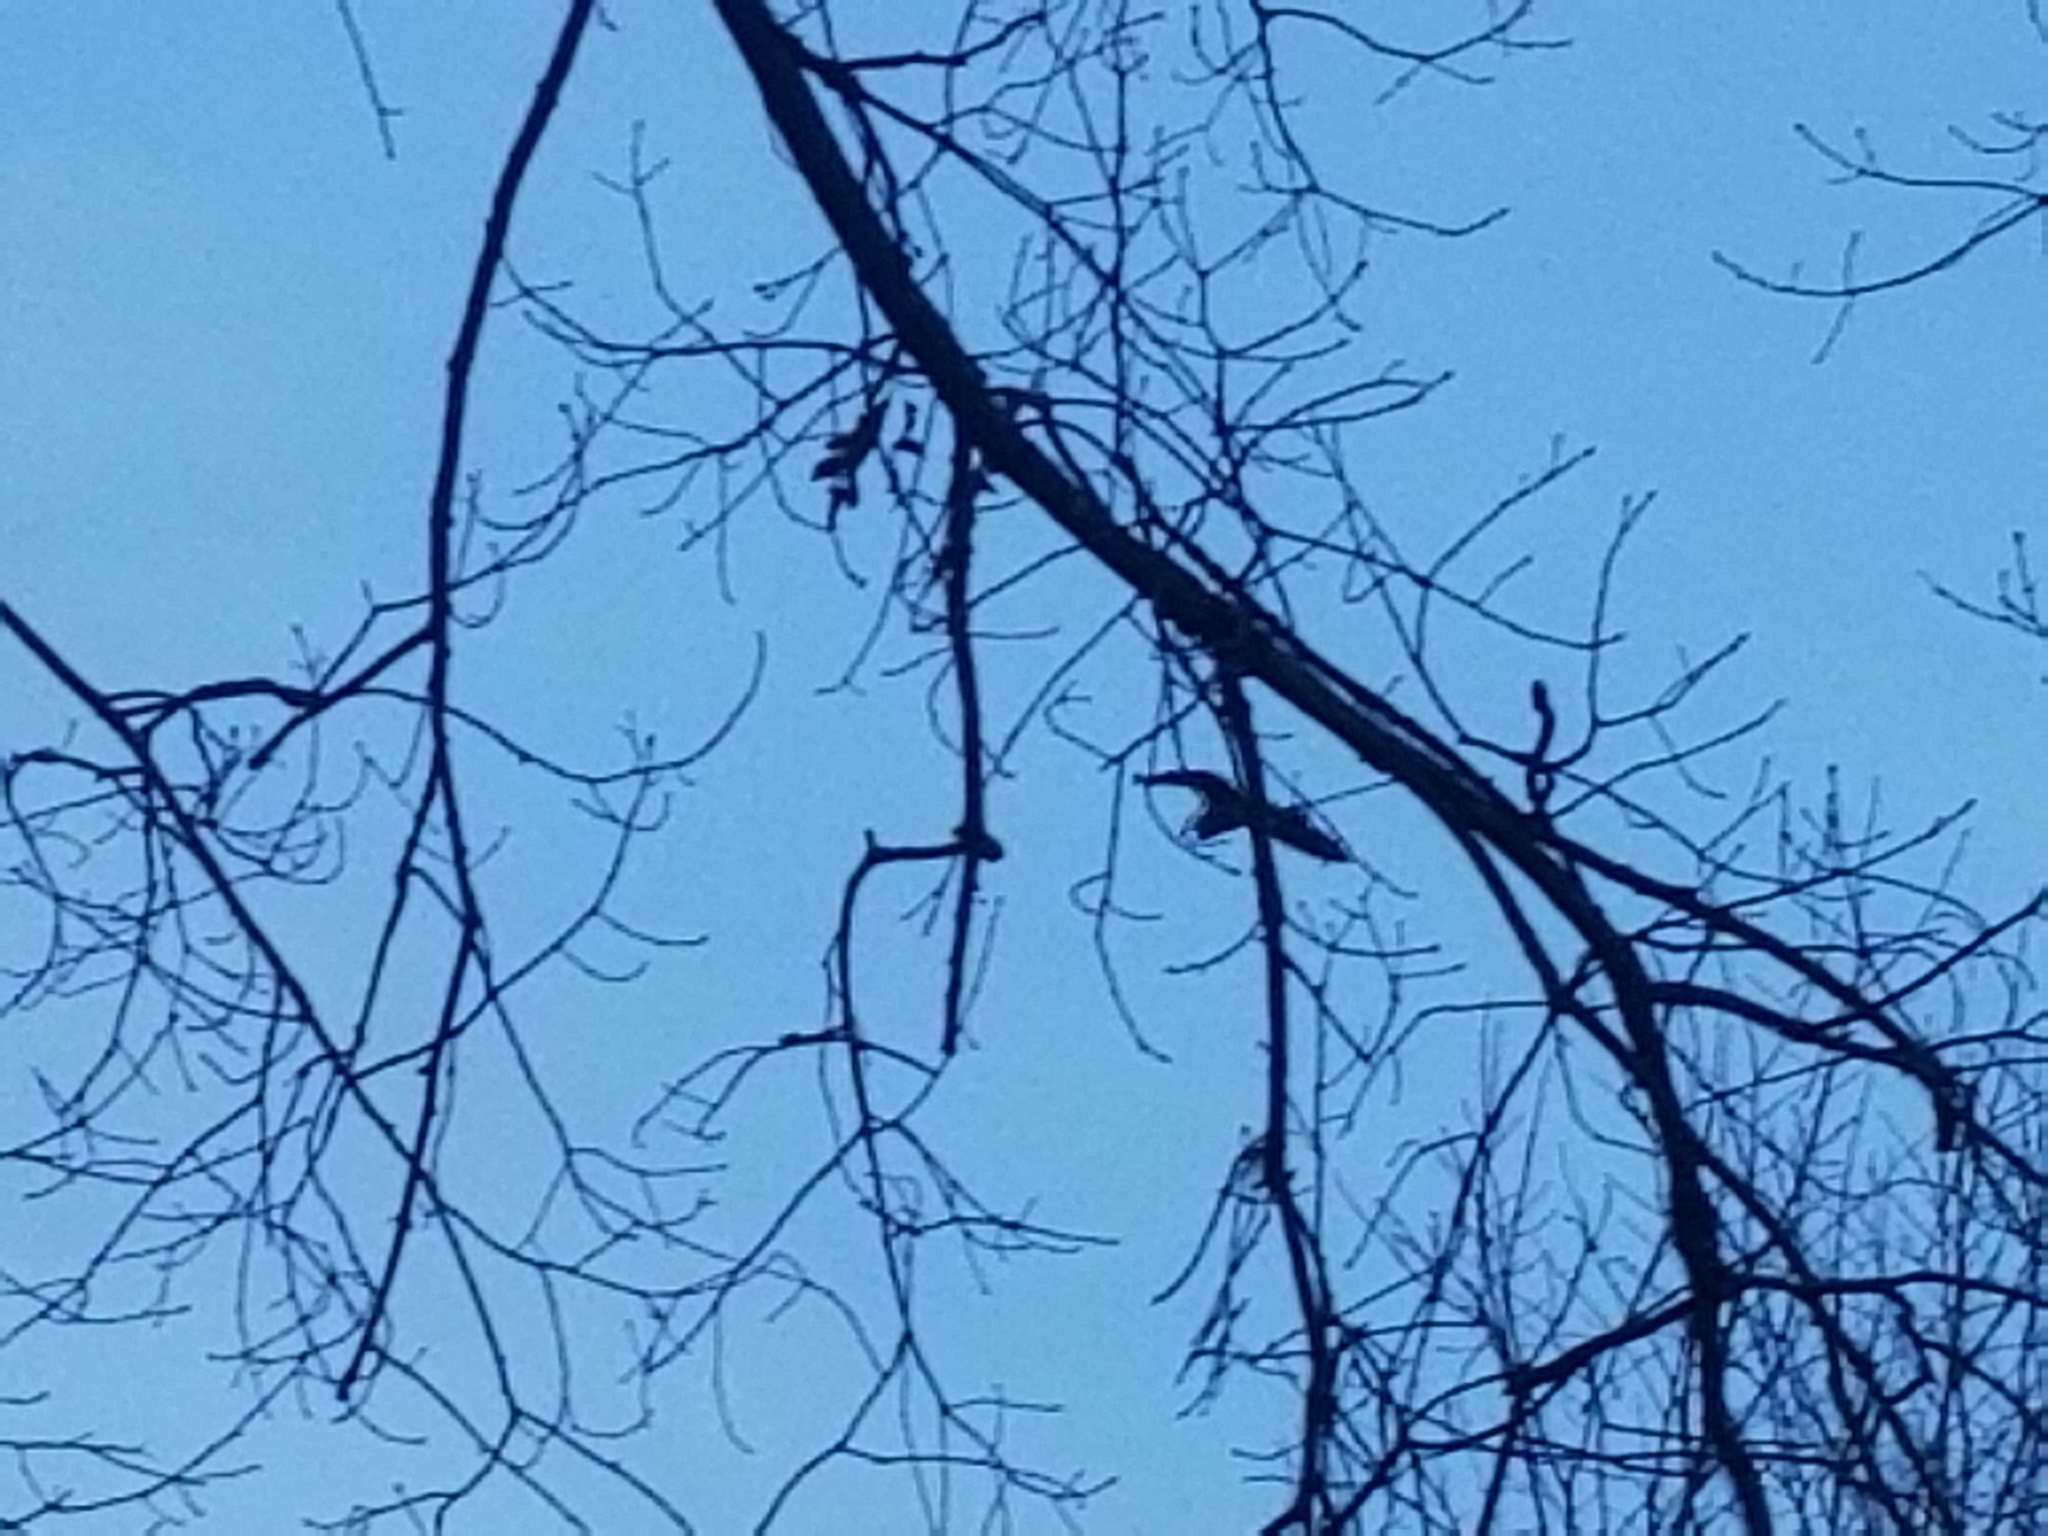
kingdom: Animalia
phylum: Chordata
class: Aves
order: Pelecaniformes
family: Ardeidae
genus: Ardea
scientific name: Ardea herodias
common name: Great blue heron
